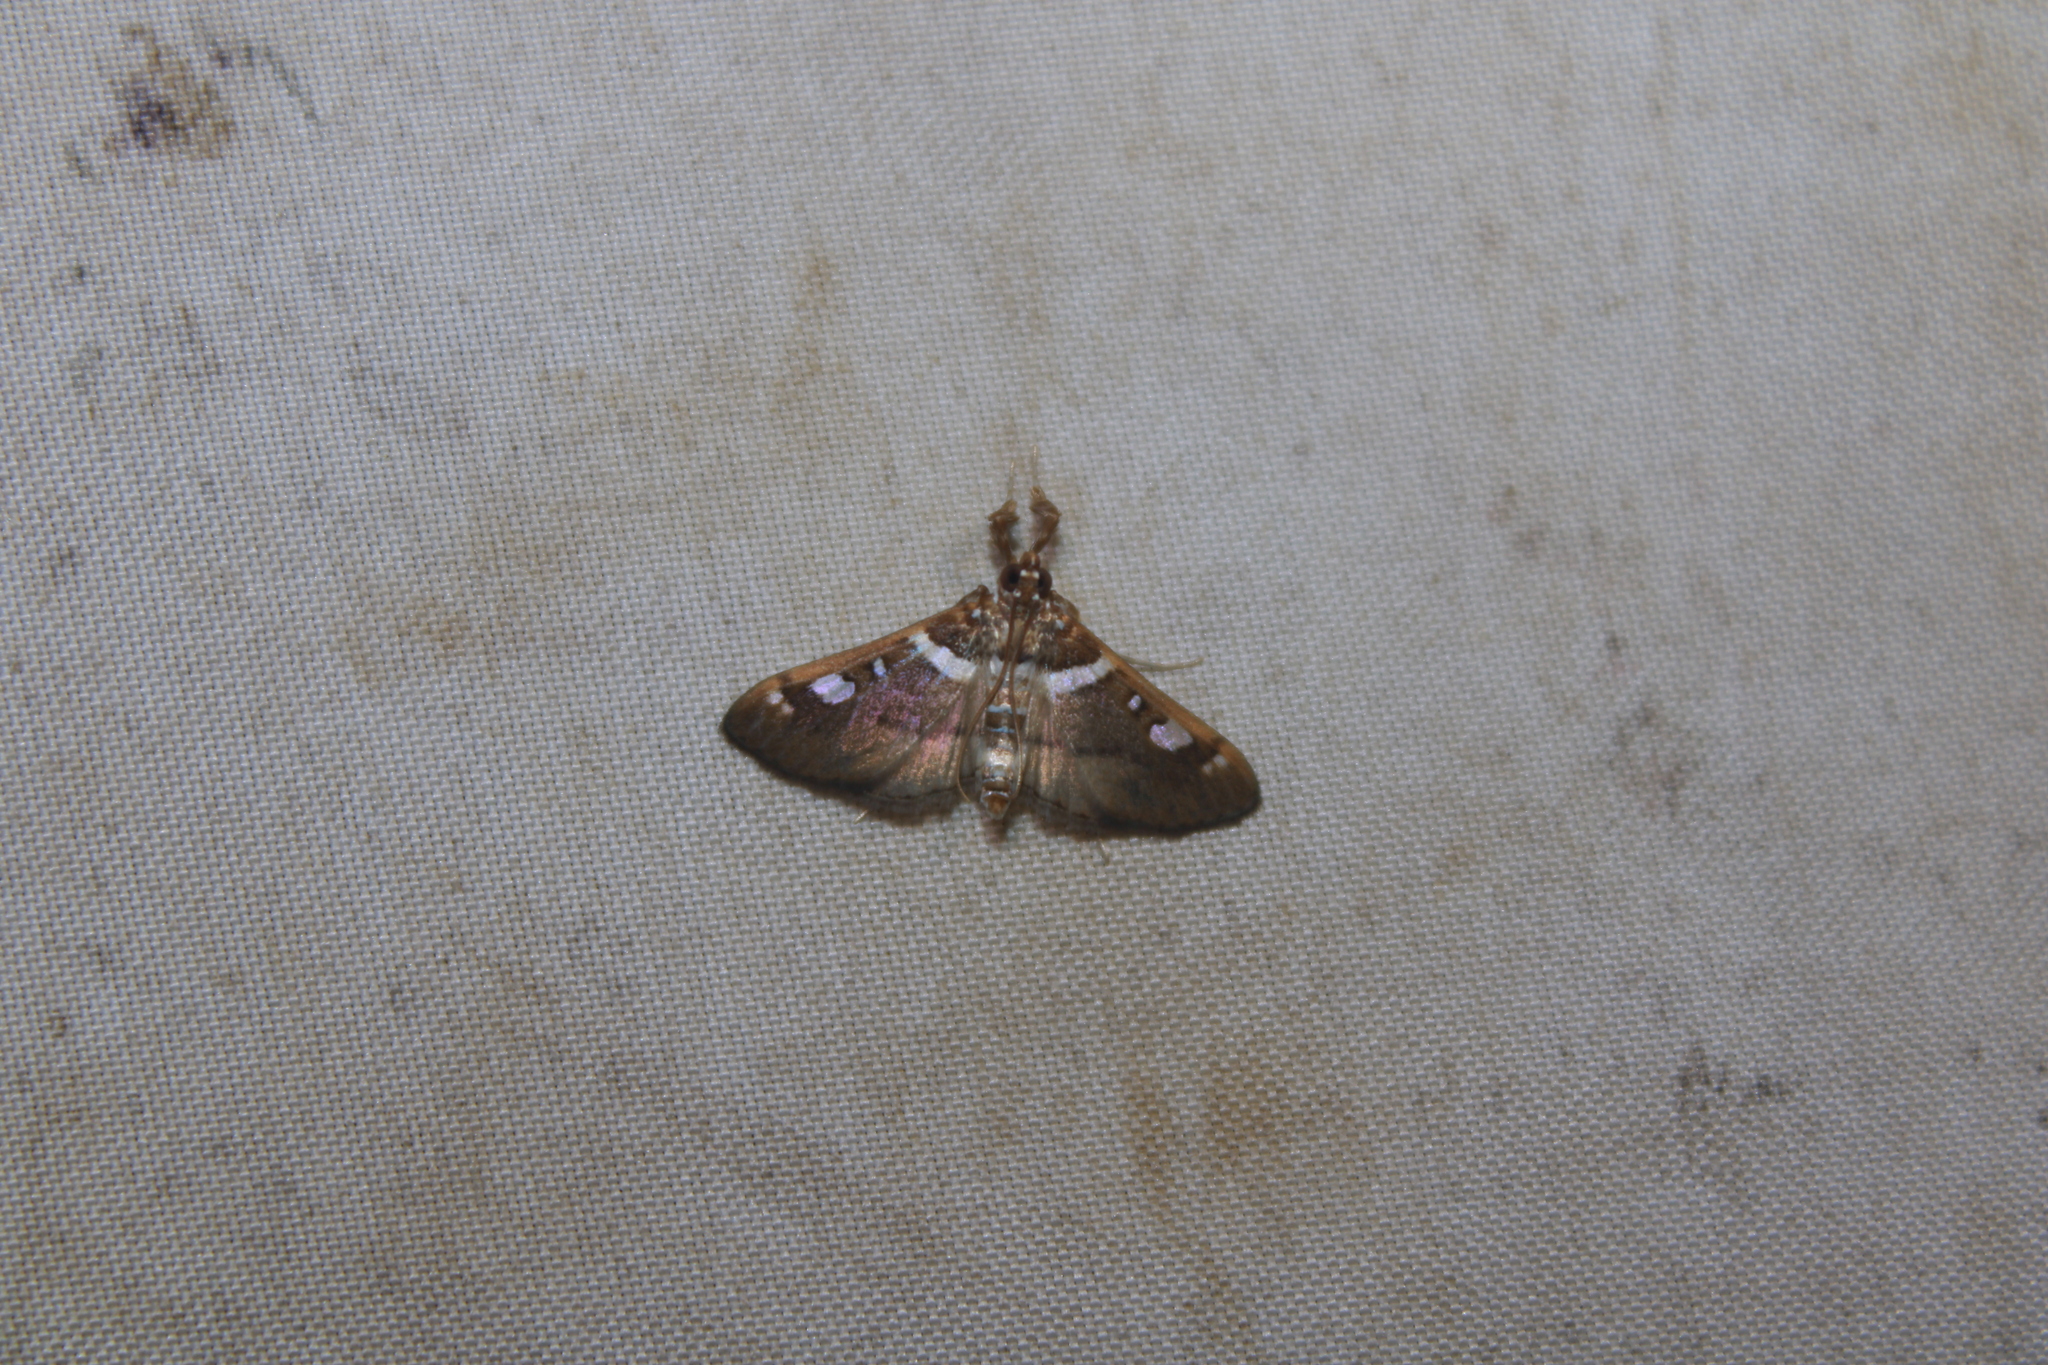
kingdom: Animalia
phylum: Arthropoda
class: Insecta
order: Lepidoptera
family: Crambidae
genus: Diaphantania
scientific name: Diaphantania impulsalis
